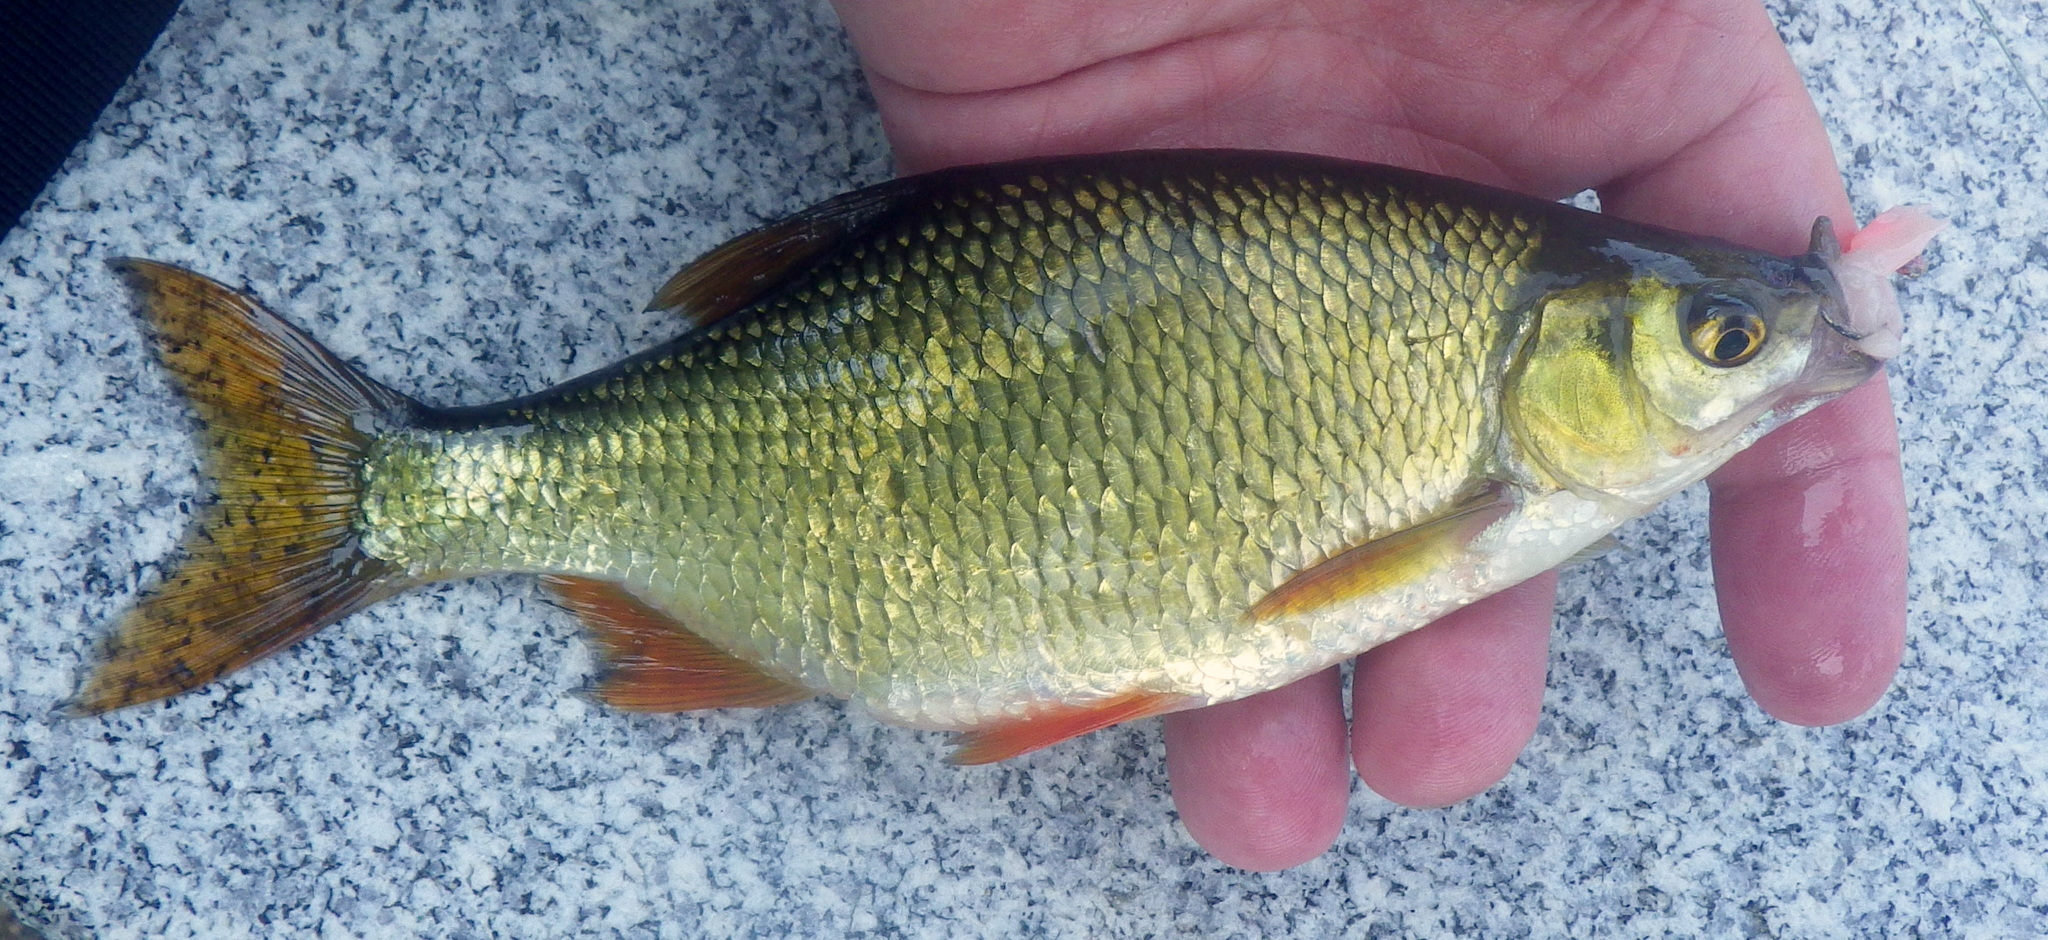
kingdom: Animalia
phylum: Chordata
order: Cypriniformes
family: Cyprinidae
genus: Notemigonus
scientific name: Notemigonus crysoleucas
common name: Golden shiner
